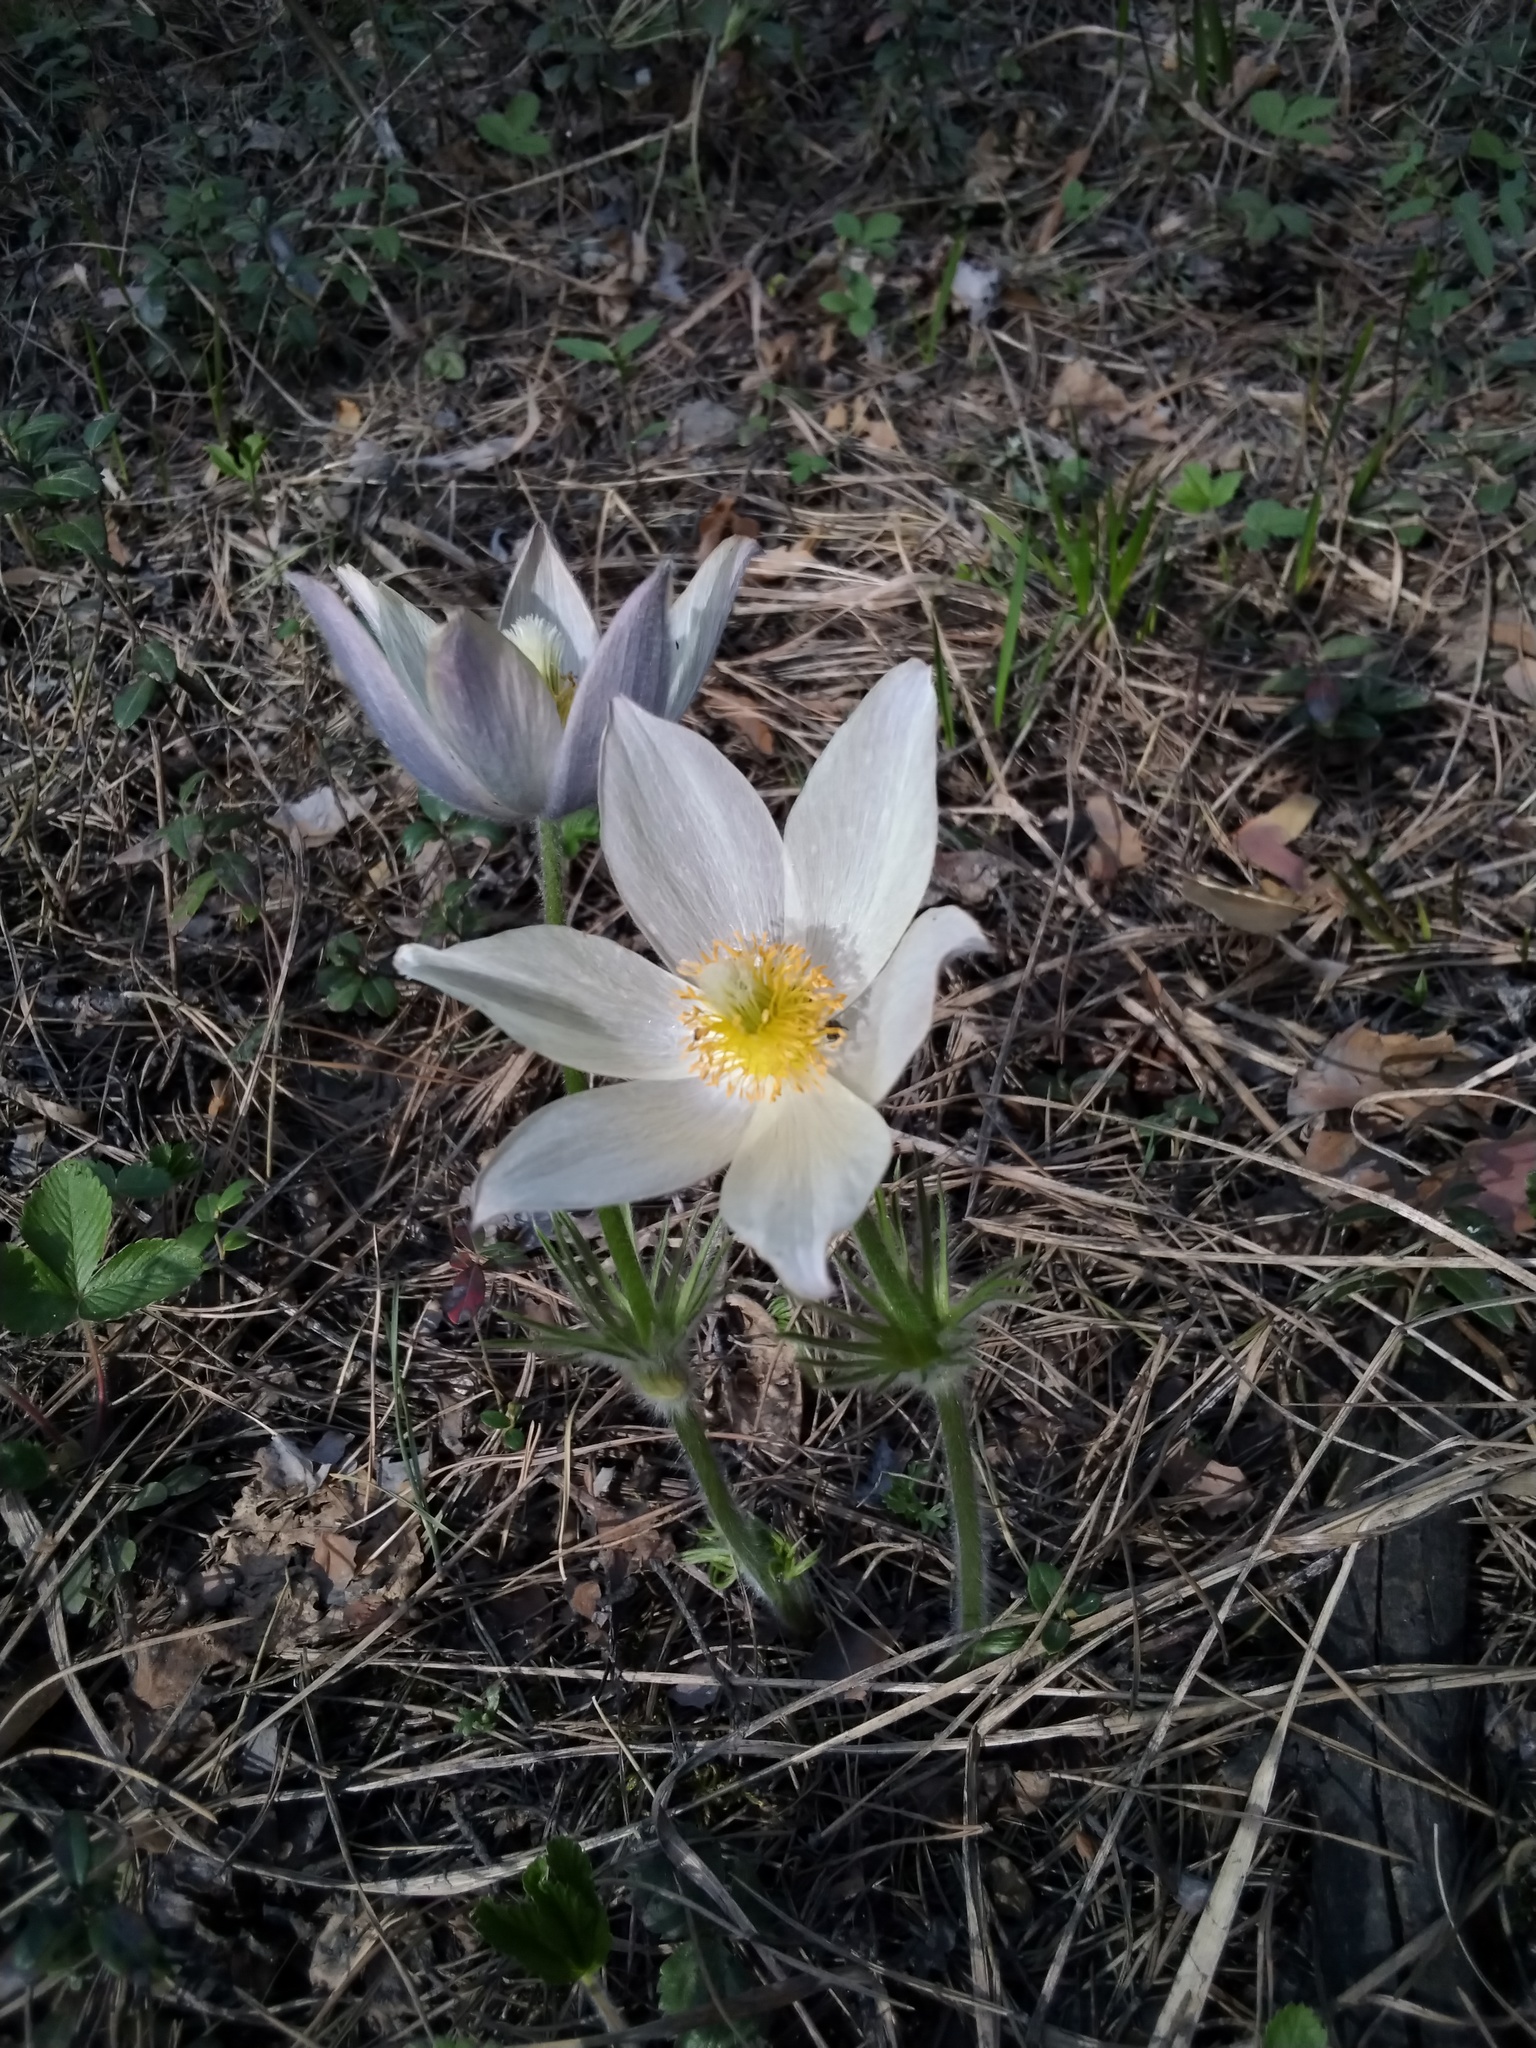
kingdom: Plantae
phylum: Tracheophyta
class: Magnoliopsida
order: Ranunculales
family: Ranunculaceae
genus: Pulsatilla
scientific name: Pulsatilla patens
